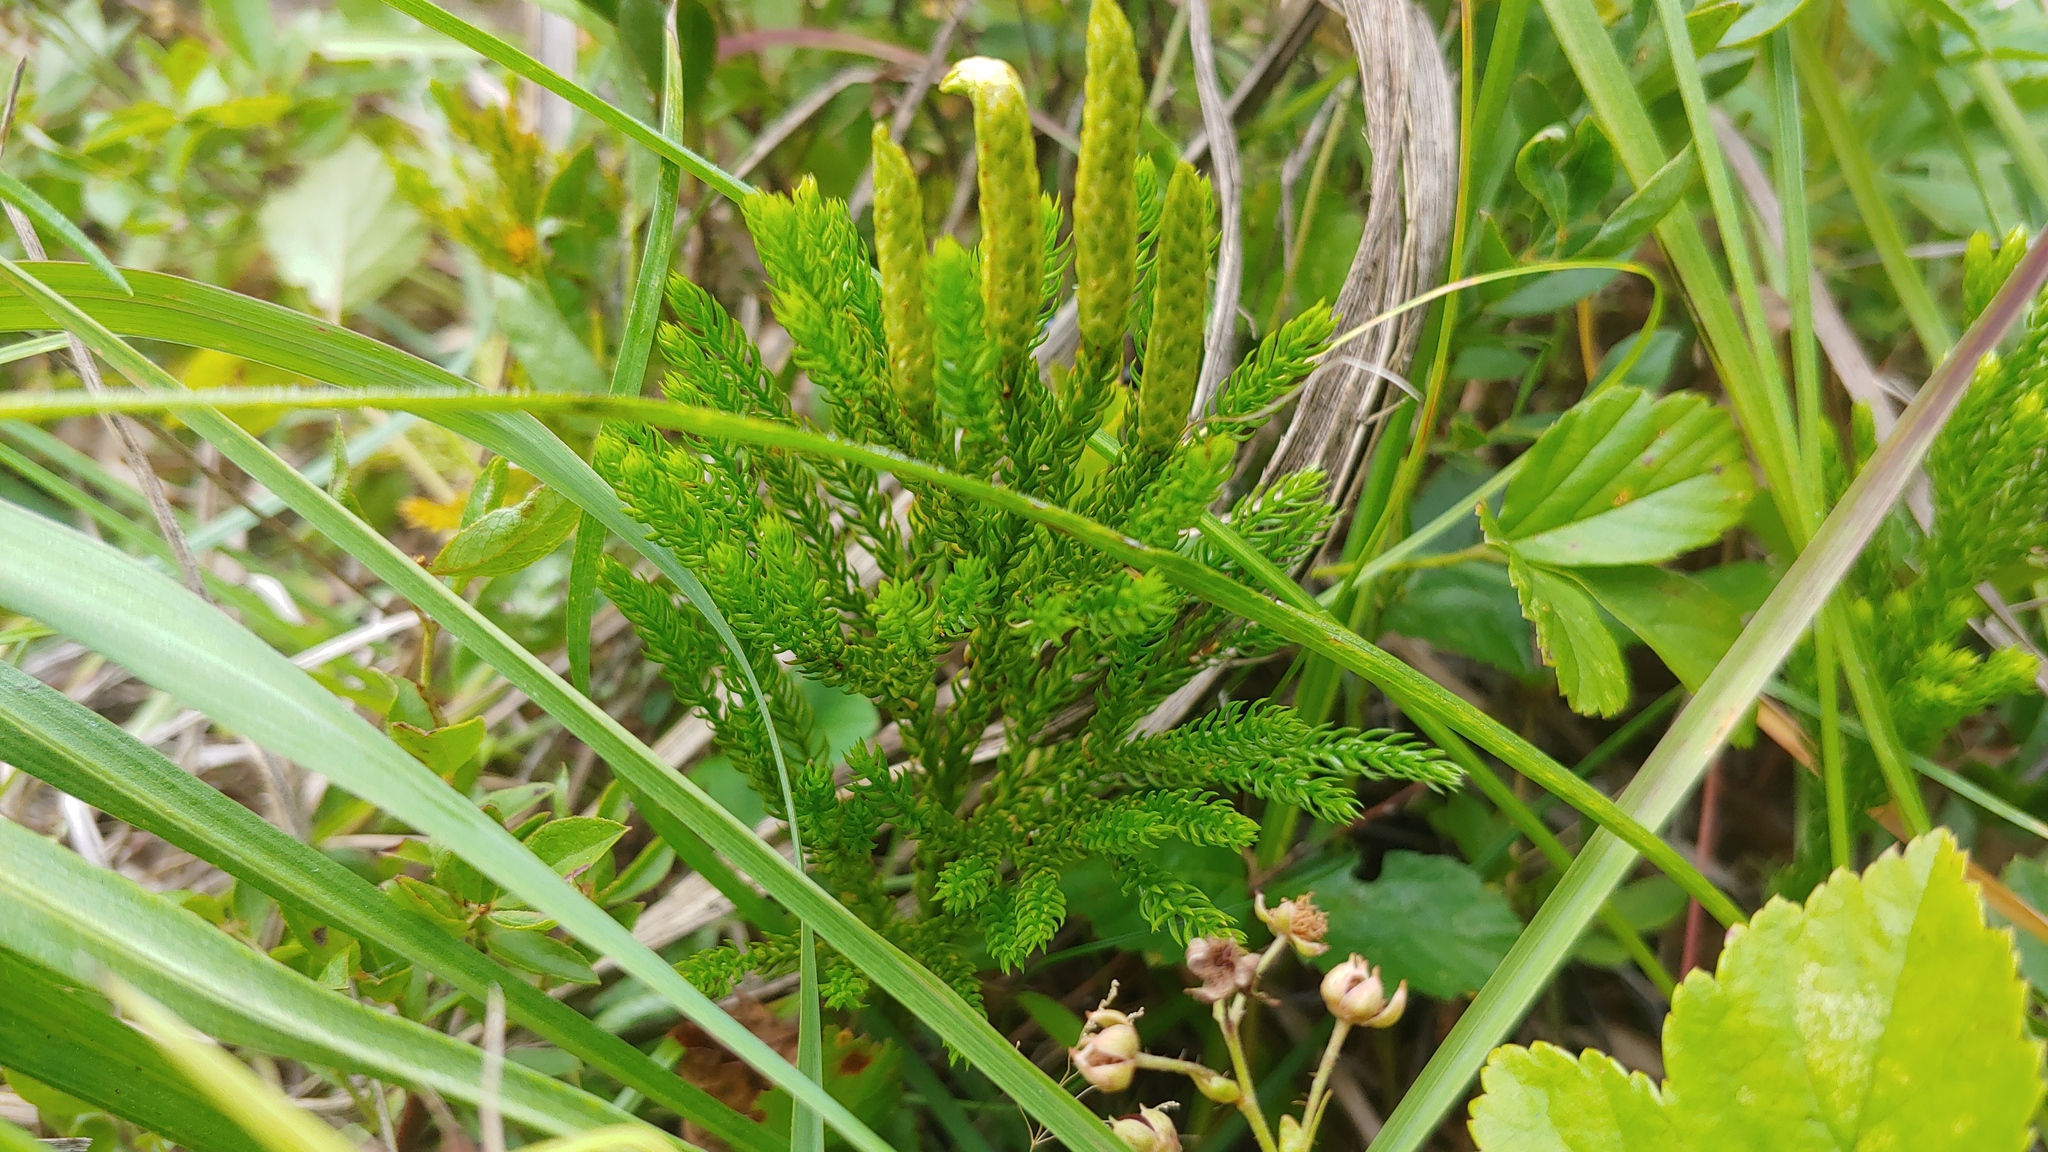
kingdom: Plantae
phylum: Tracheophyta
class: Lycopodiopsida
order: Lycopodiales
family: Lycopodiaceae
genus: Dendrolycopodium
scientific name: Dendrolycopodium hickeyi
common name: Hickey's clubmoss
